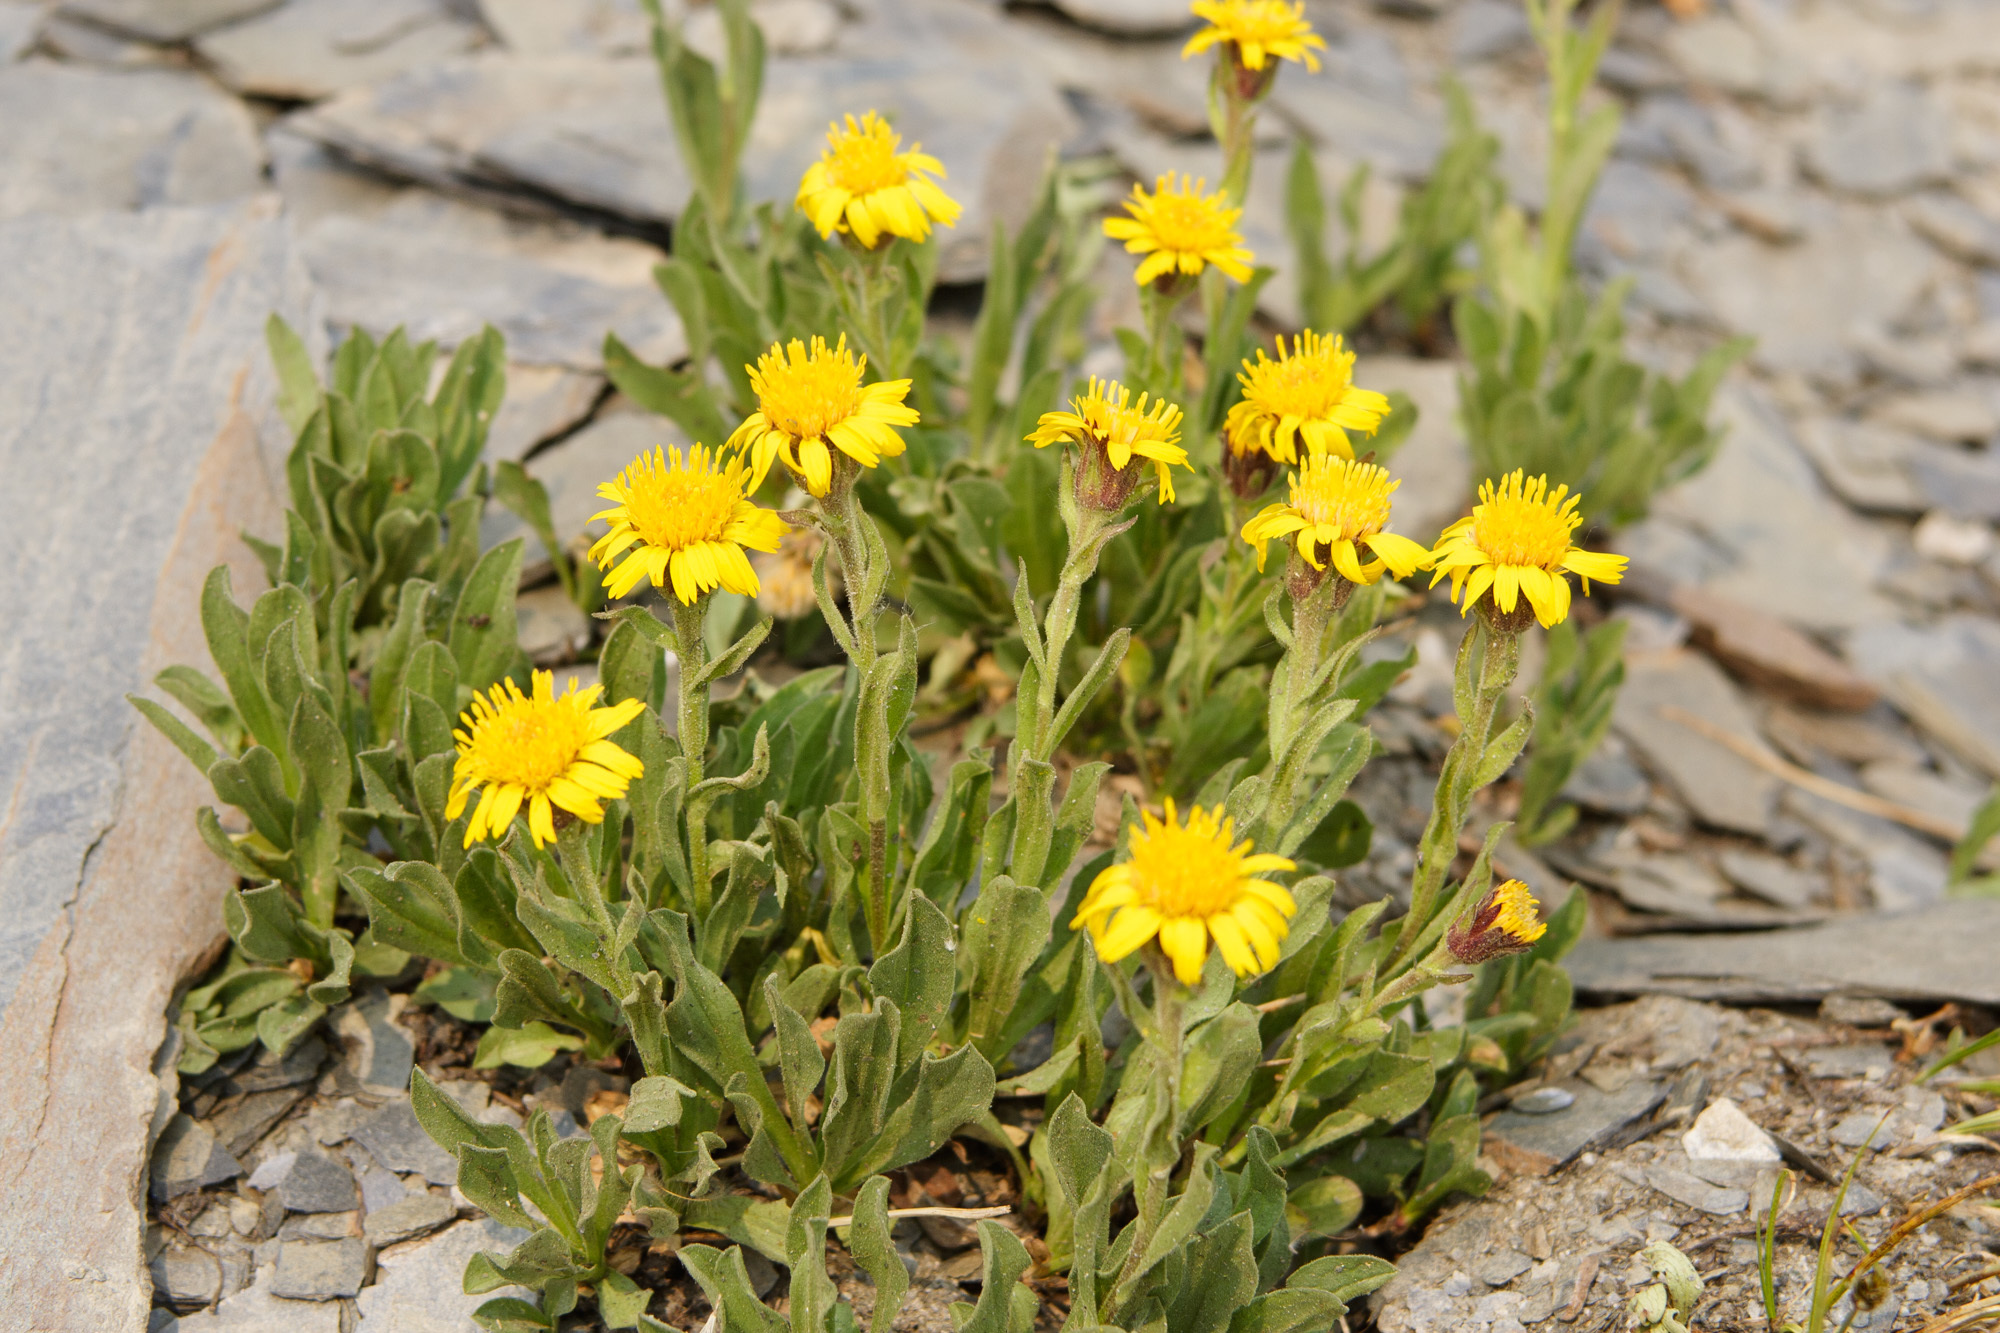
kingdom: Plantae
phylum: Tracheophyta
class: Magnoliopsida
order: Asterales
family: Asteraceae
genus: Tonestus
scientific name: Tonestus lyallii
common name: Lyall's goldenweed
